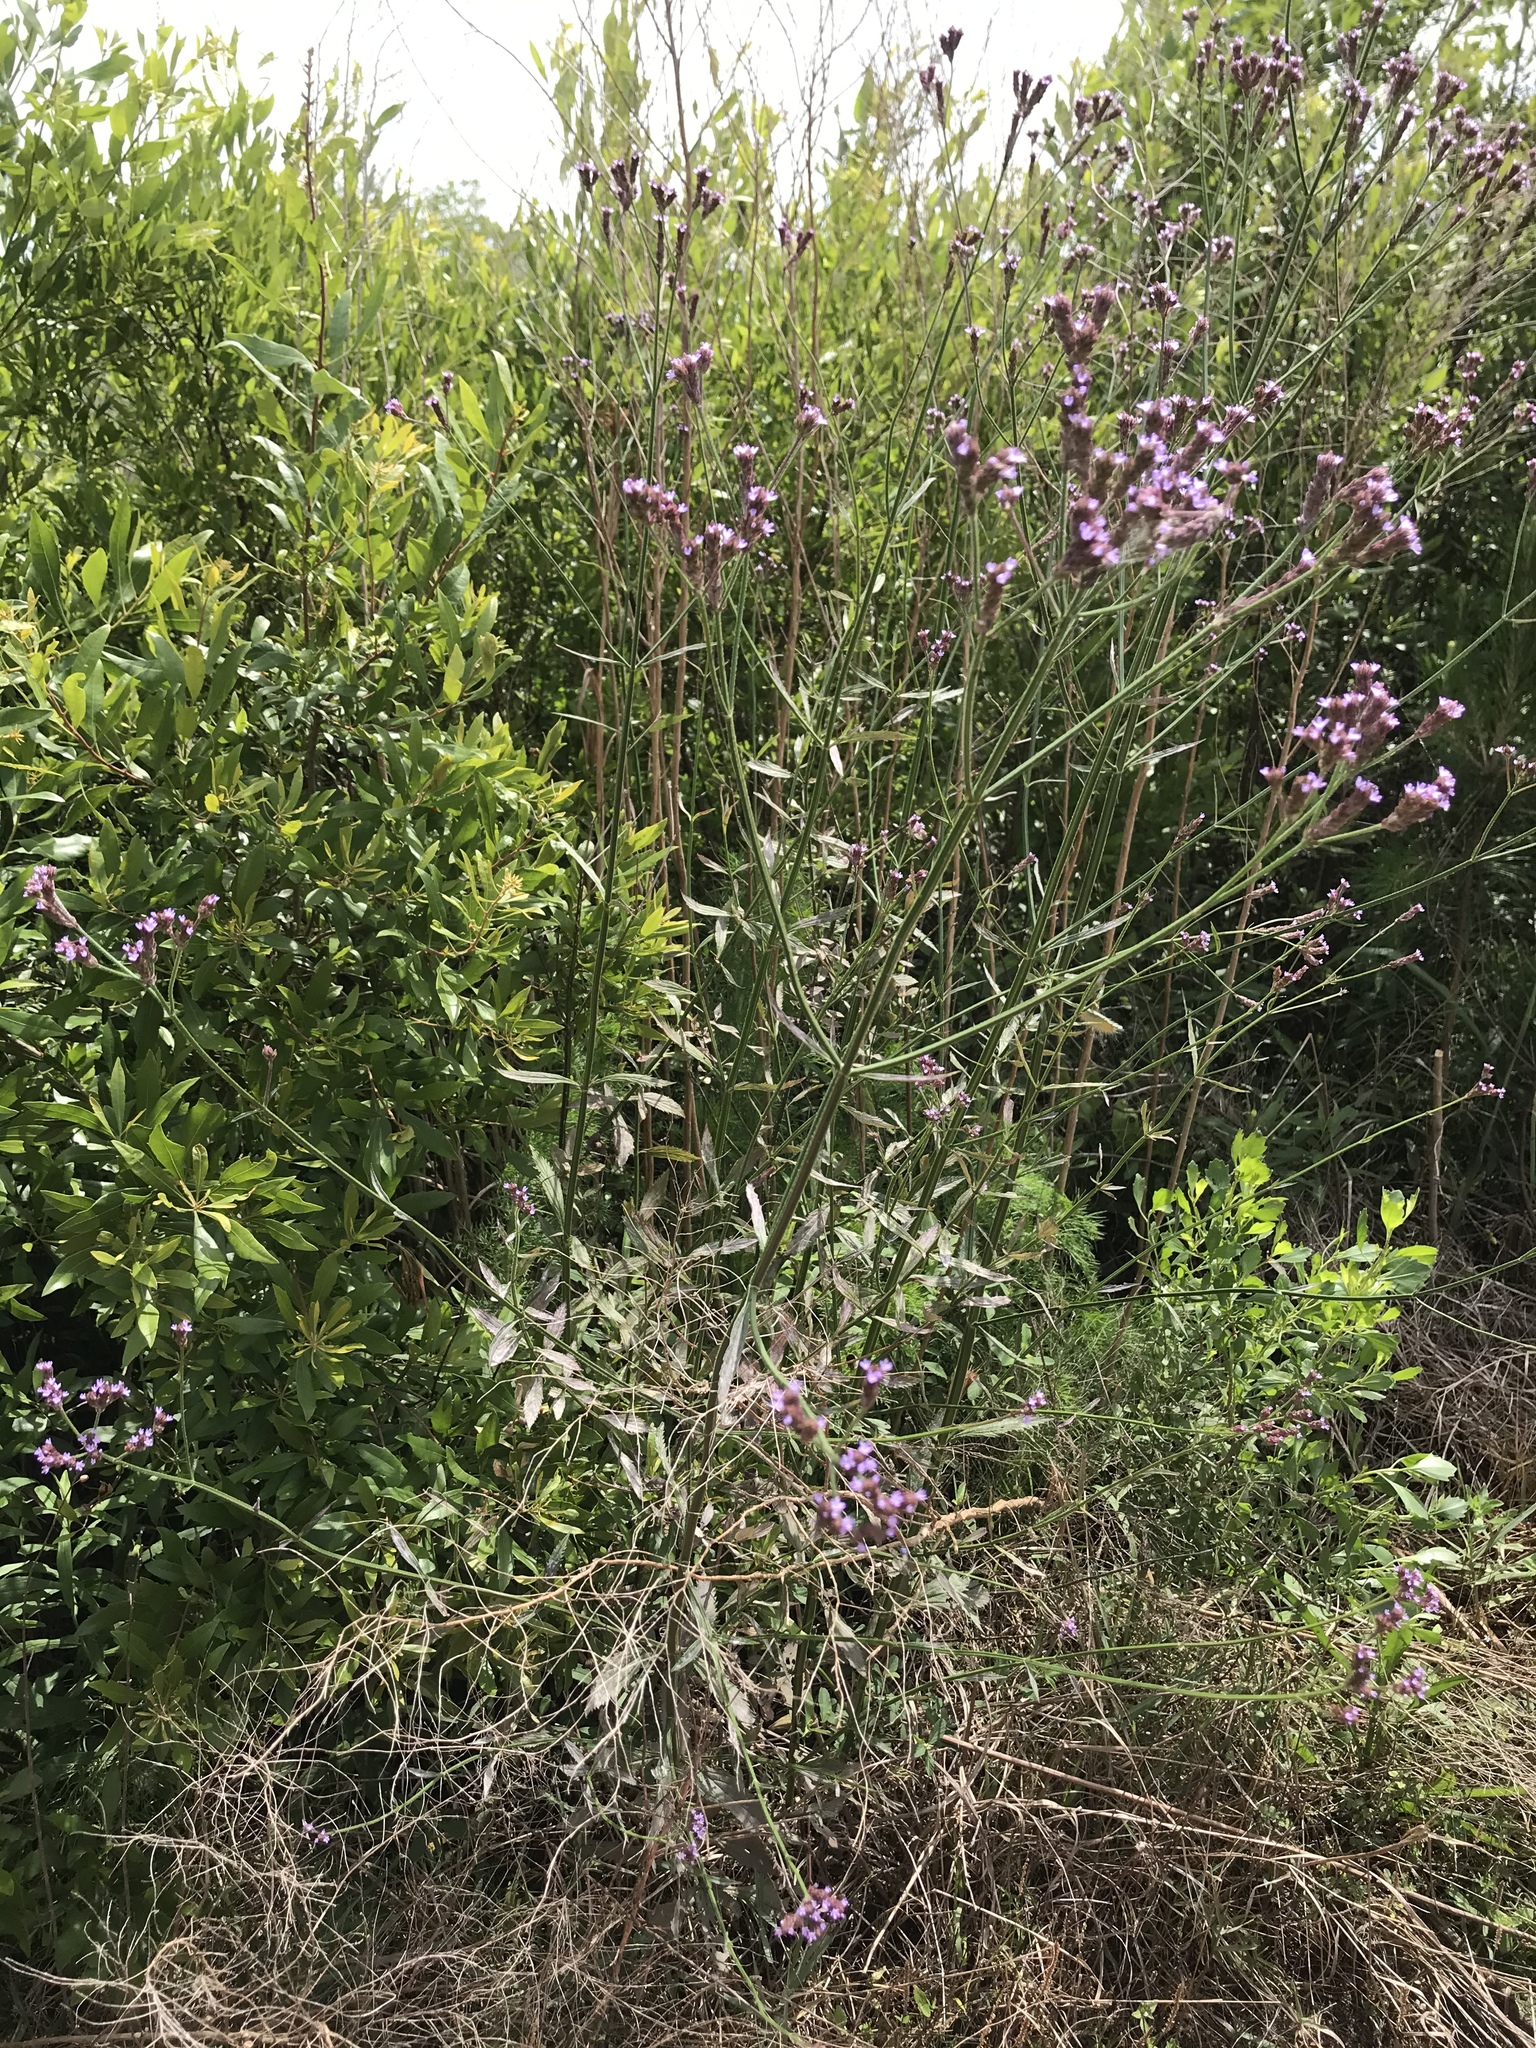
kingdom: Plantae
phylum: Tracheophyta
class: Magnoliopsida
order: Lamiales
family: Verbenaceae
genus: Verbena
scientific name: Verbena brasiliensis
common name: Brazilian vervain
